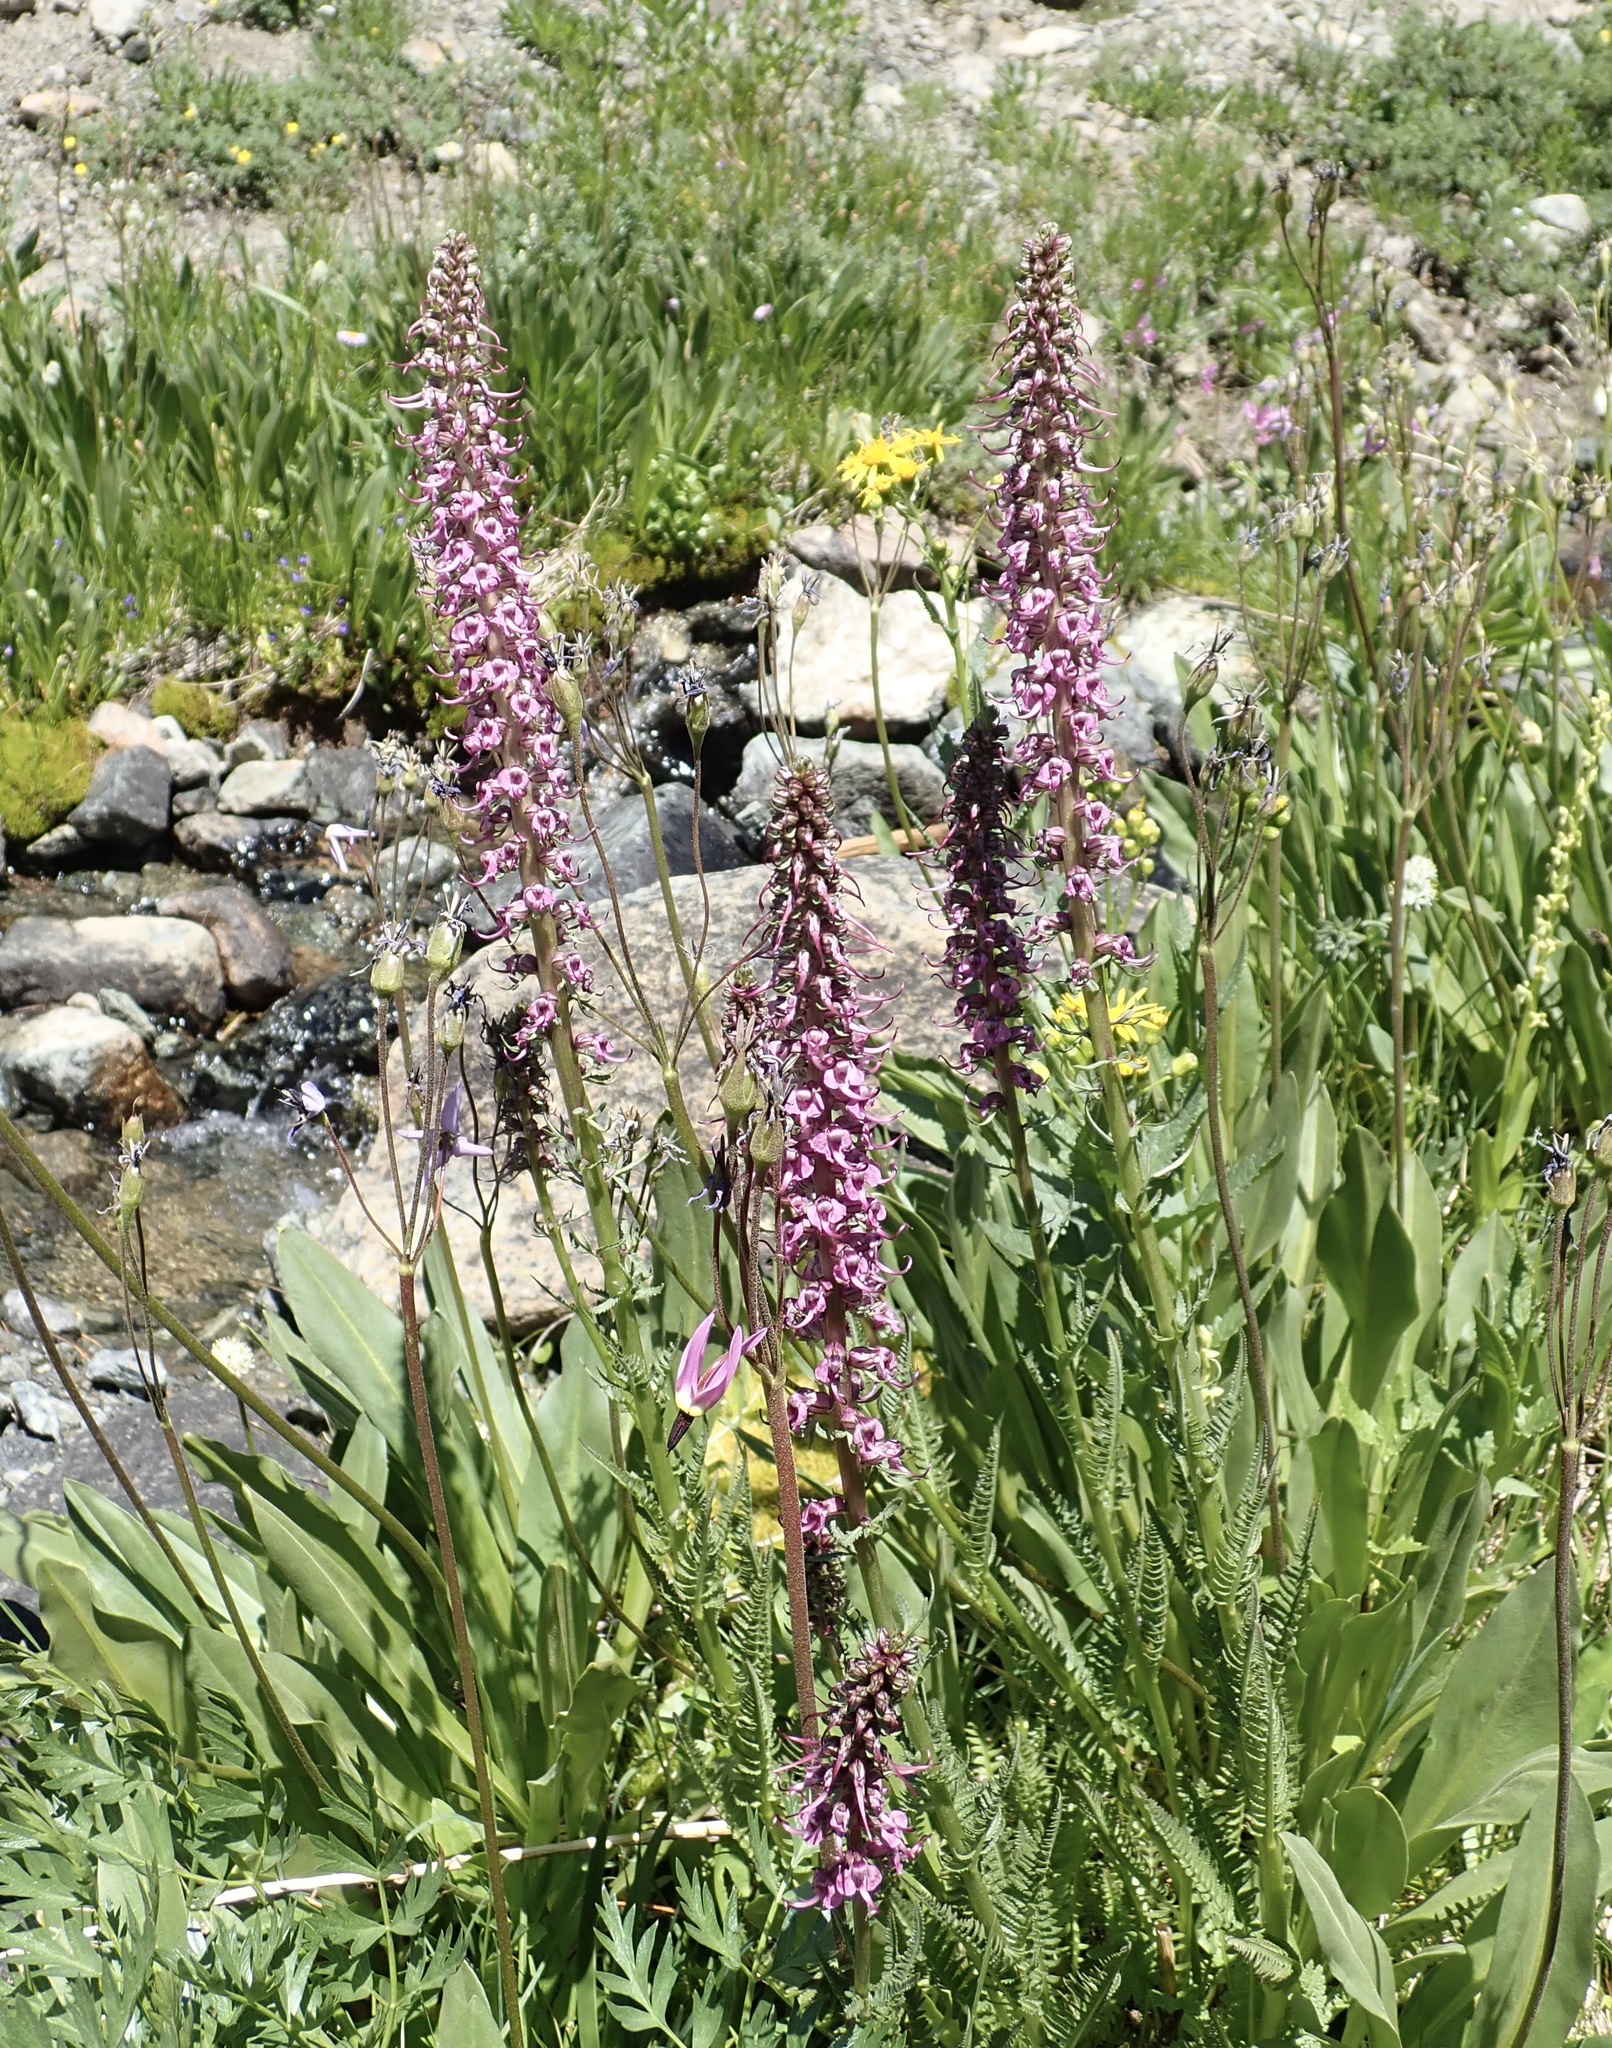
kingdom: Plantae
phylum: Tracheophyta
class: Magnoliopsida
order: Lamiales
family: Orobanchaceae
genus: Pedicularis
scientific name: Pedicularis groenlandica
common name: Elephant's-head
